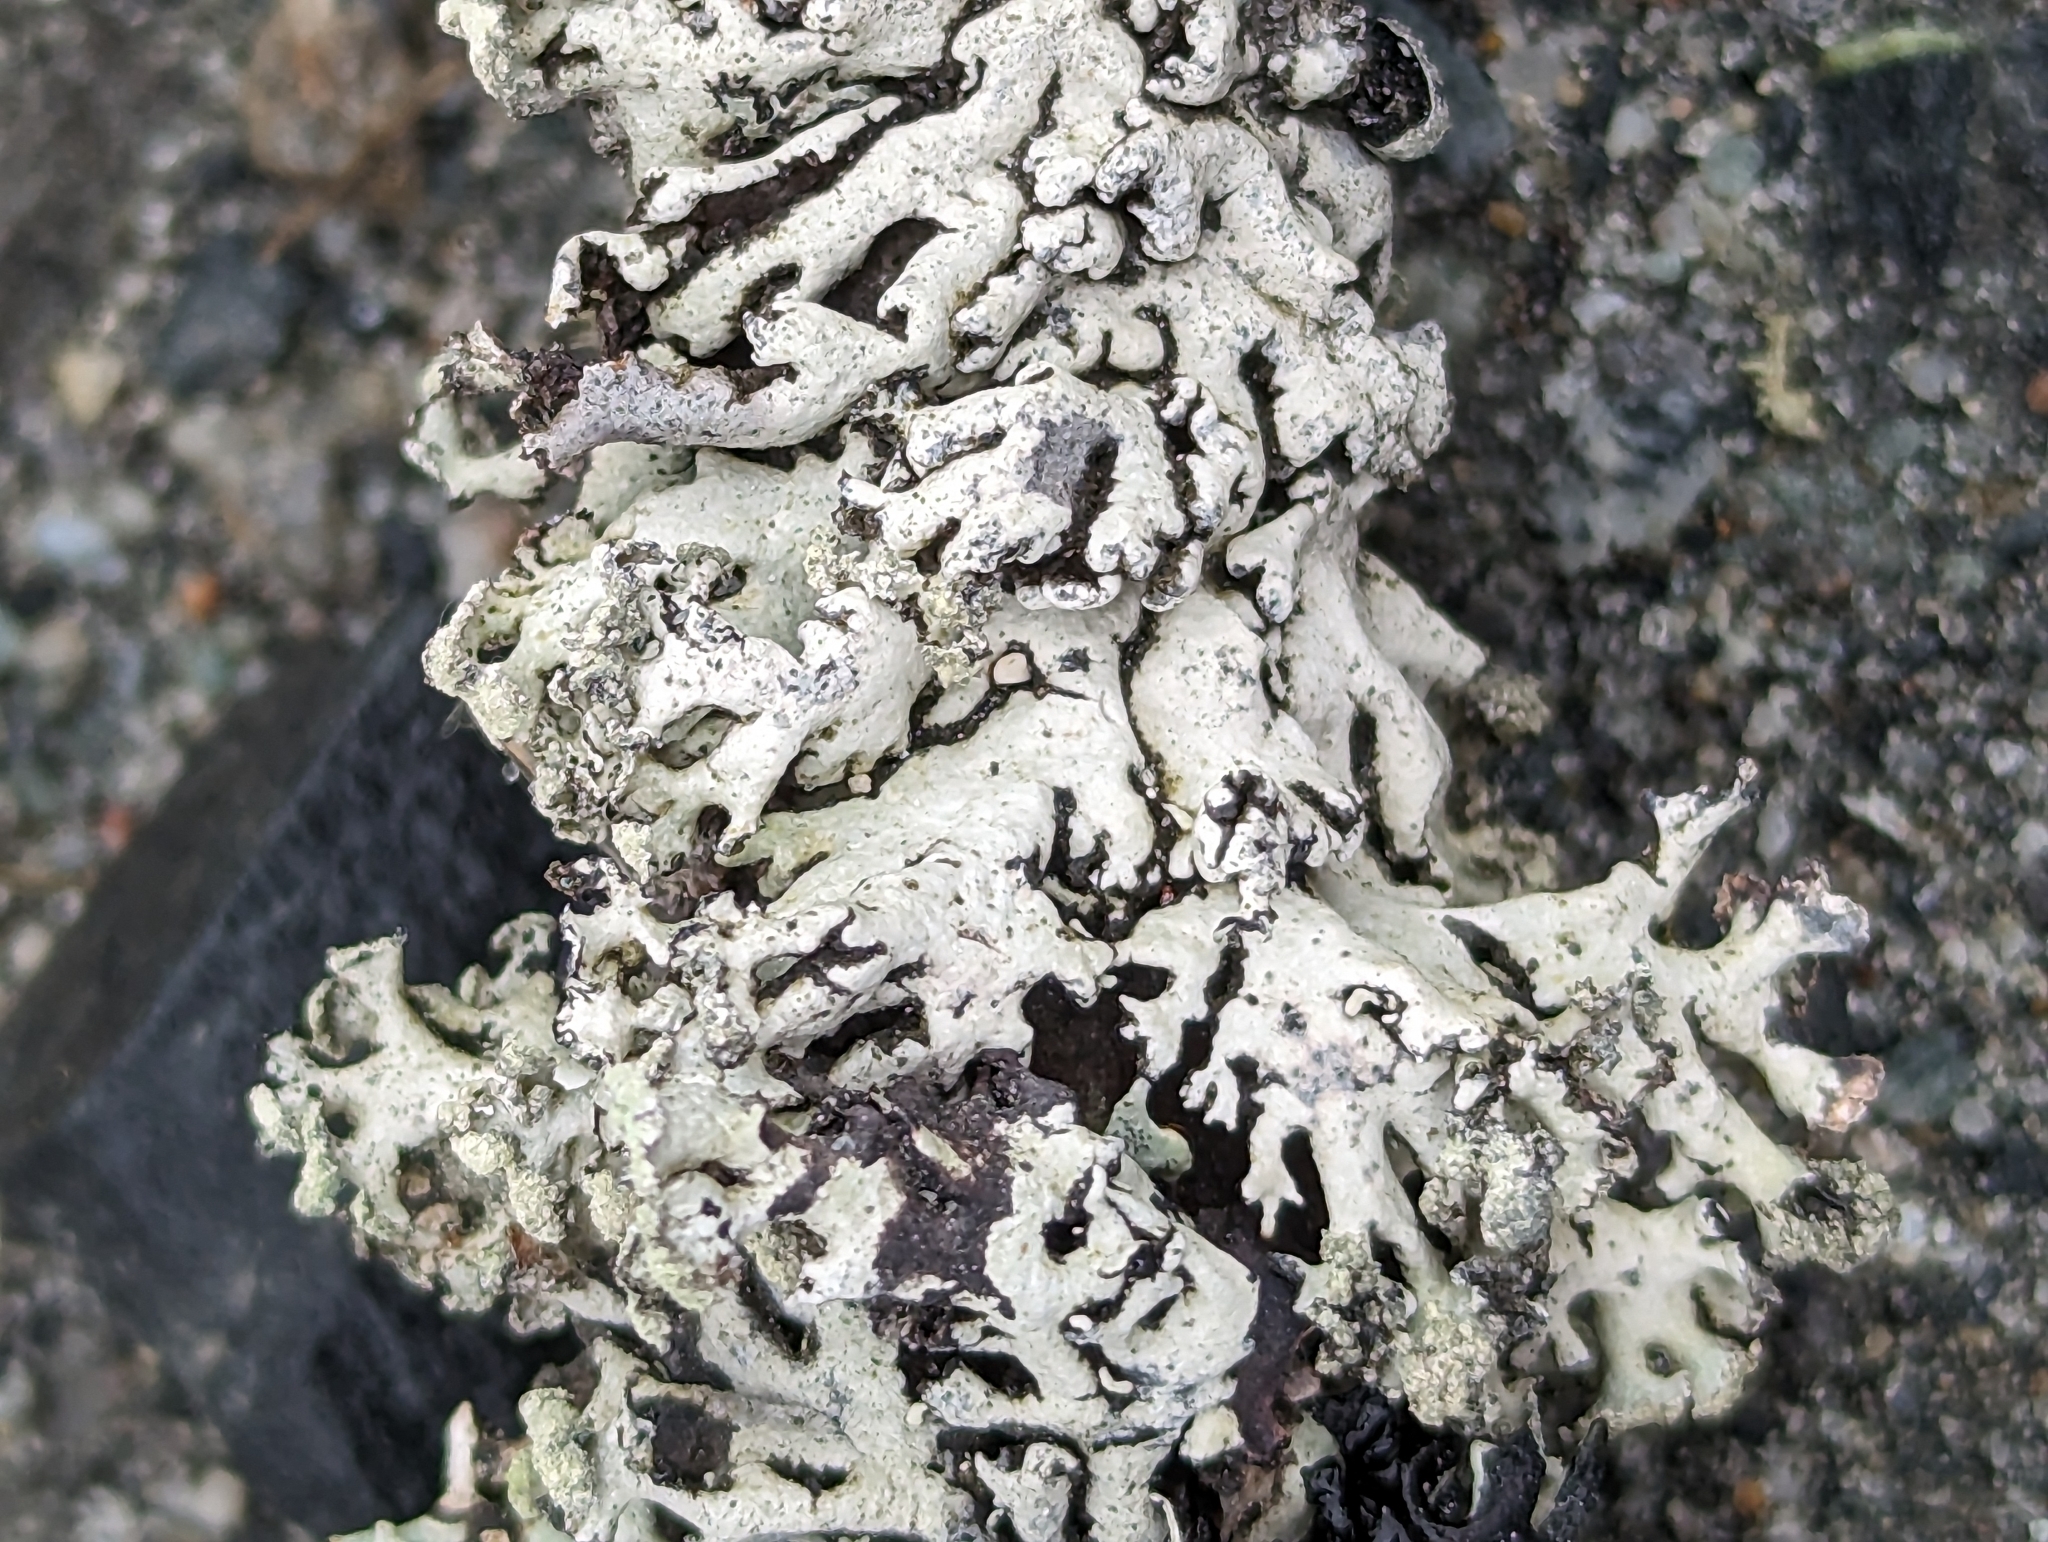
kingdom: Fungi
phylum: Ascomycota
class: Lecanoromycetes
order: Lecanorales
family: Parmeliaceae
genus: Hypogymnia
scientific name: Hypogymnia physodes
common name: Dark crottle
